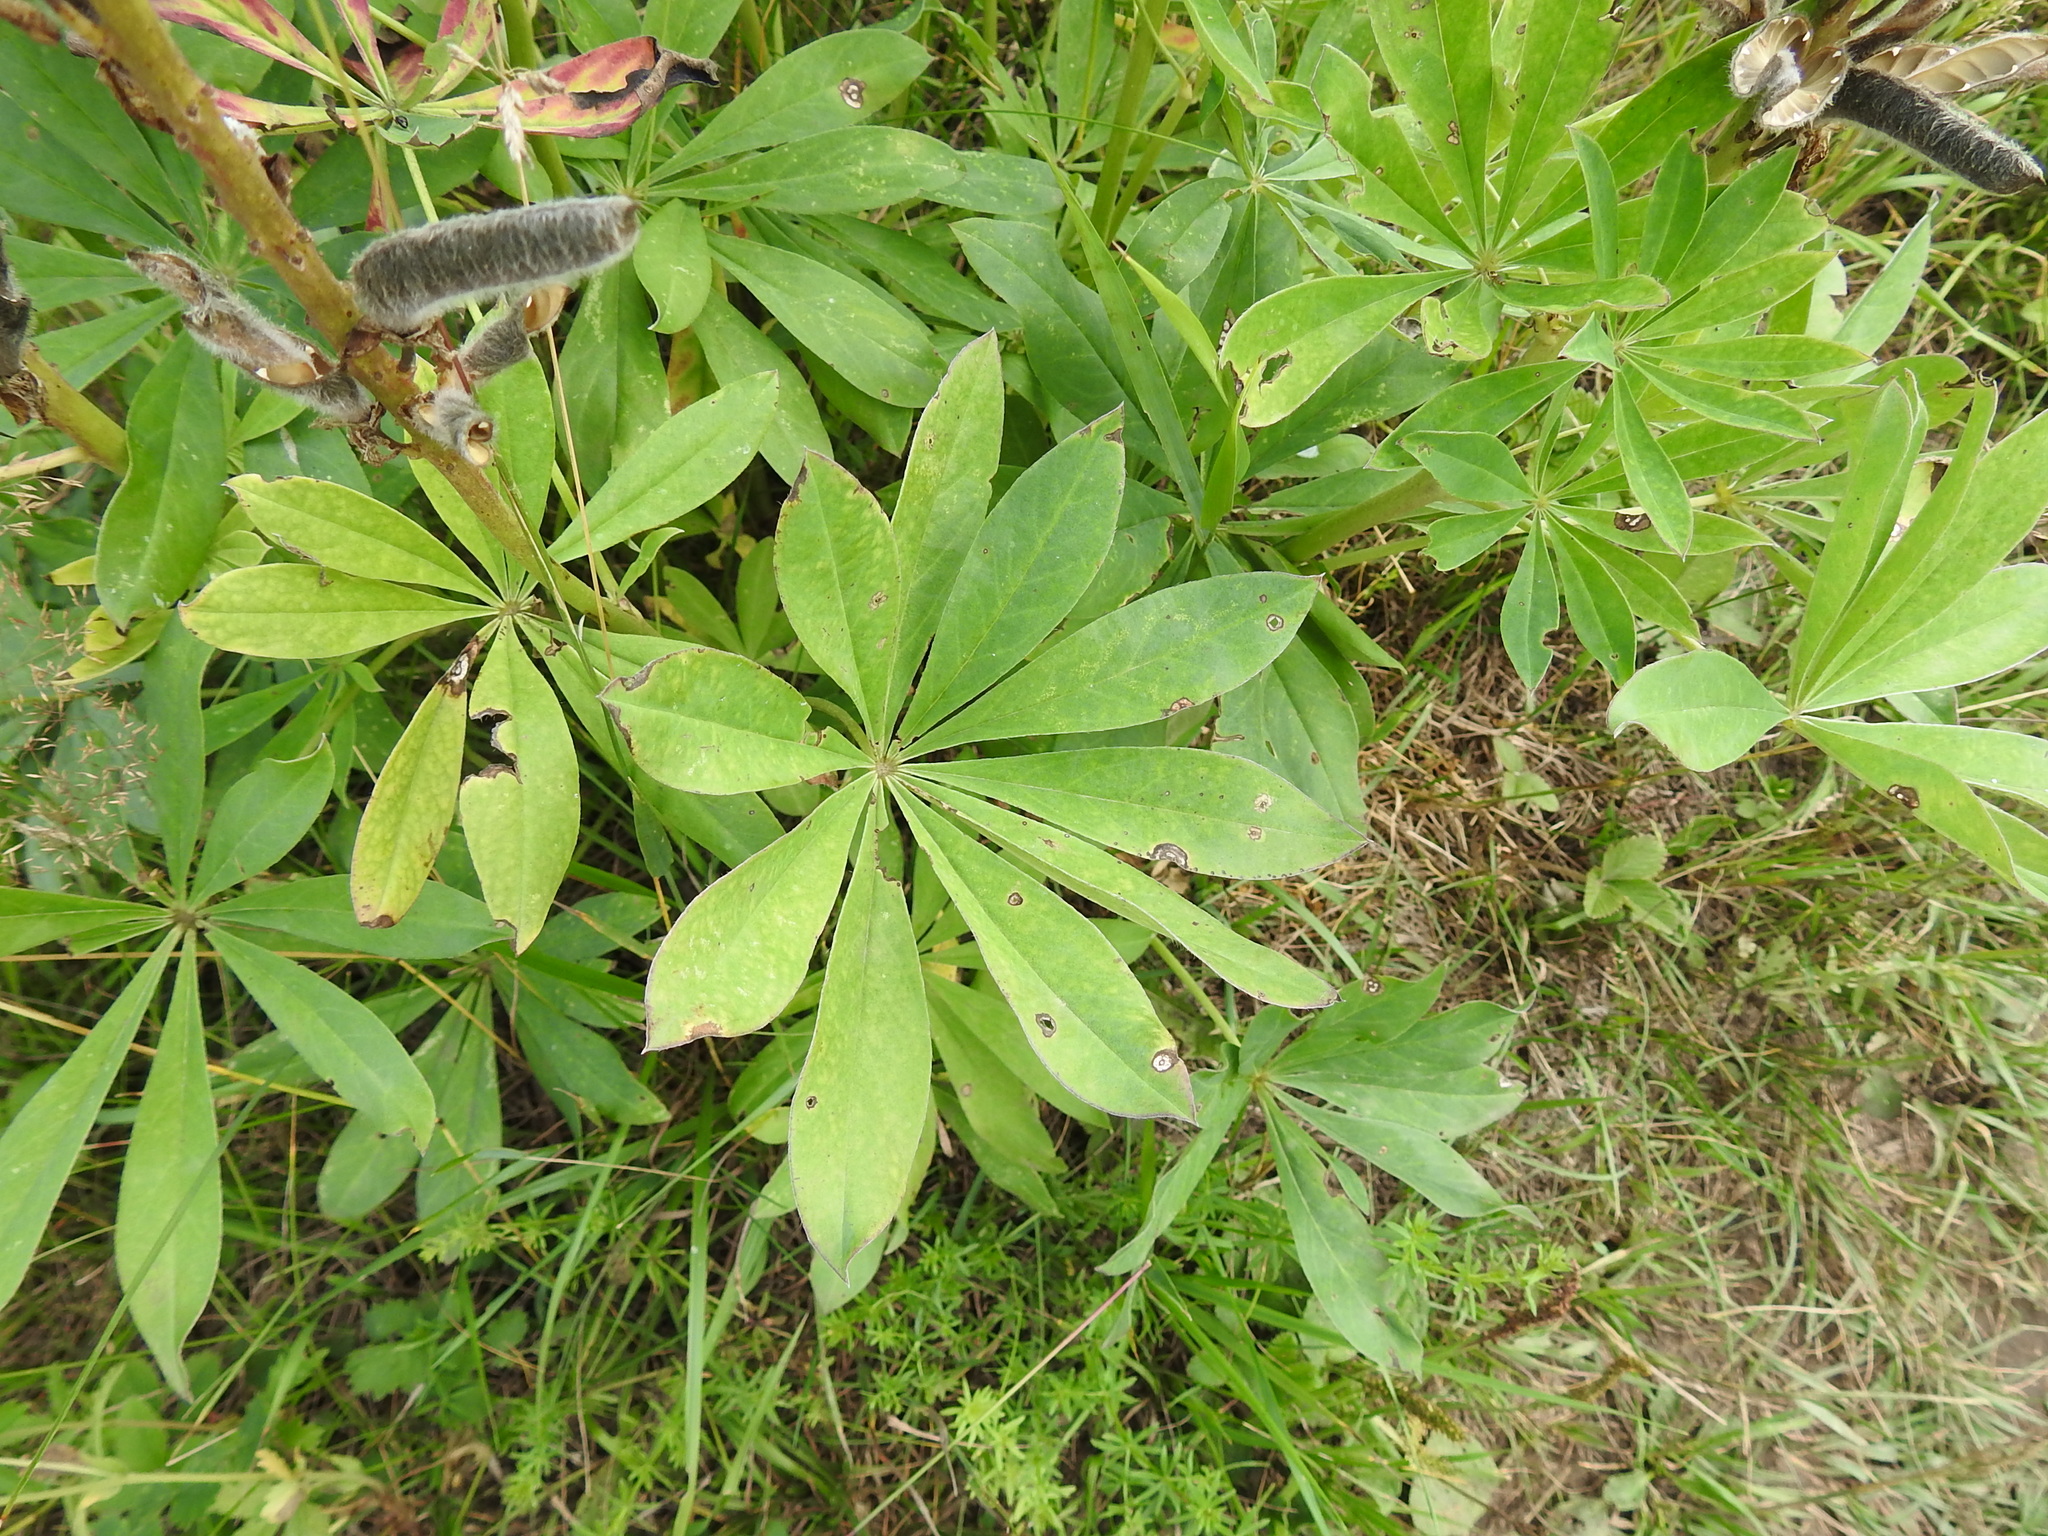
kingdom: Plantae
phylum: Tracheophyta
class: Magnoliopsida
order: Fabales
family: Fabaceae
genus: Lupinus
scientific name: Lupinus polyphyllus
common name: Garden lupin
